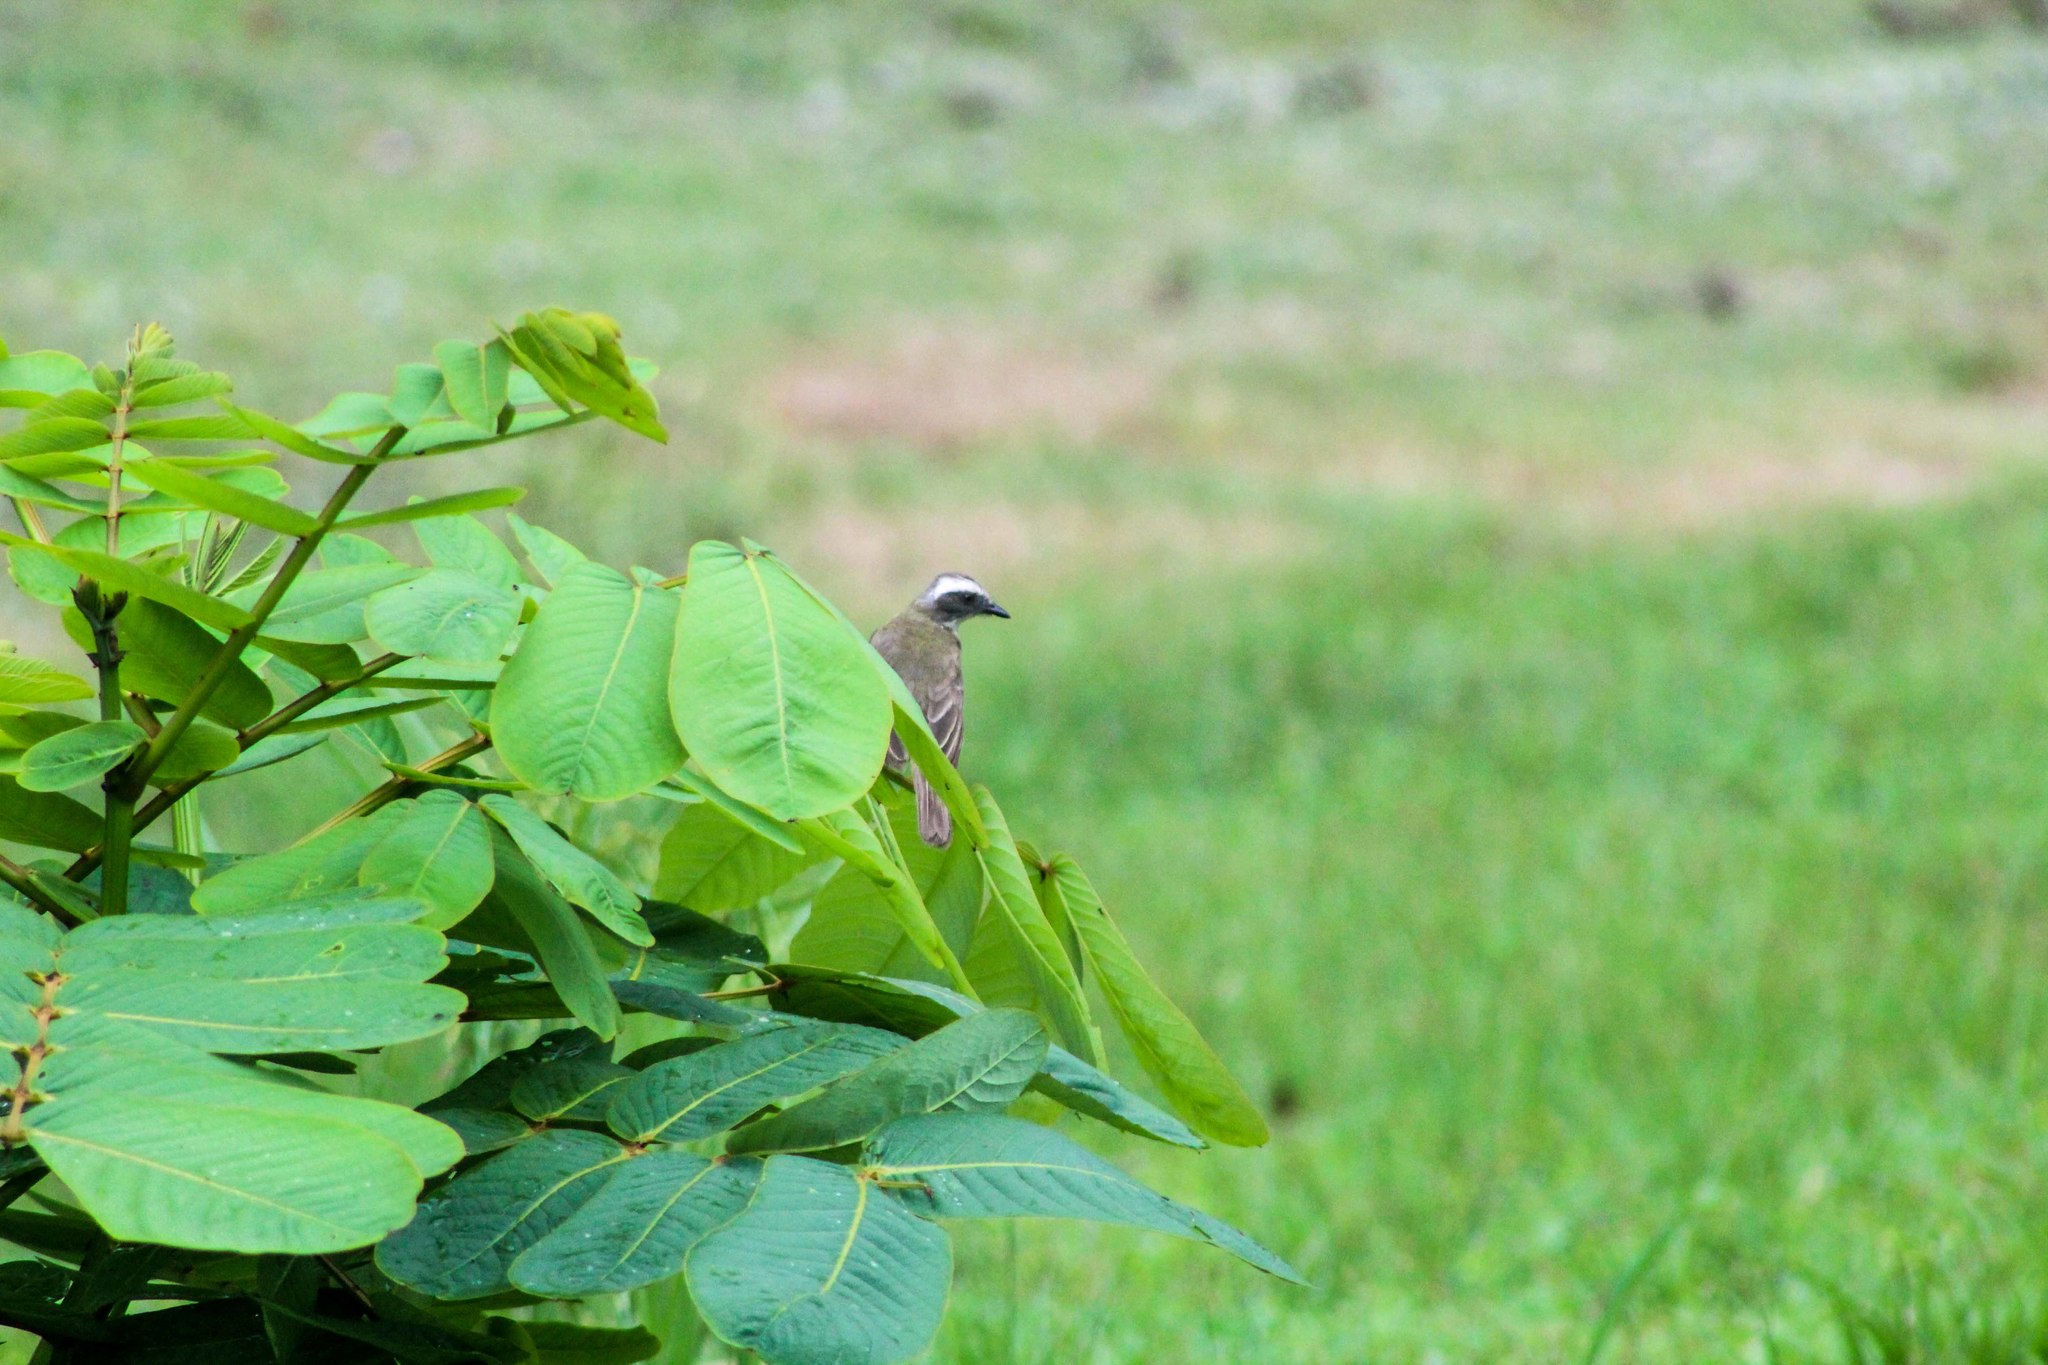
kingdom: Animalia
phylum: Chordata
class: Aves
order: Passeriformes
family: Tyrannidae
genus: Myiozetetes
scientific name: Myiozetetes similis
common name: Social flycatcher
